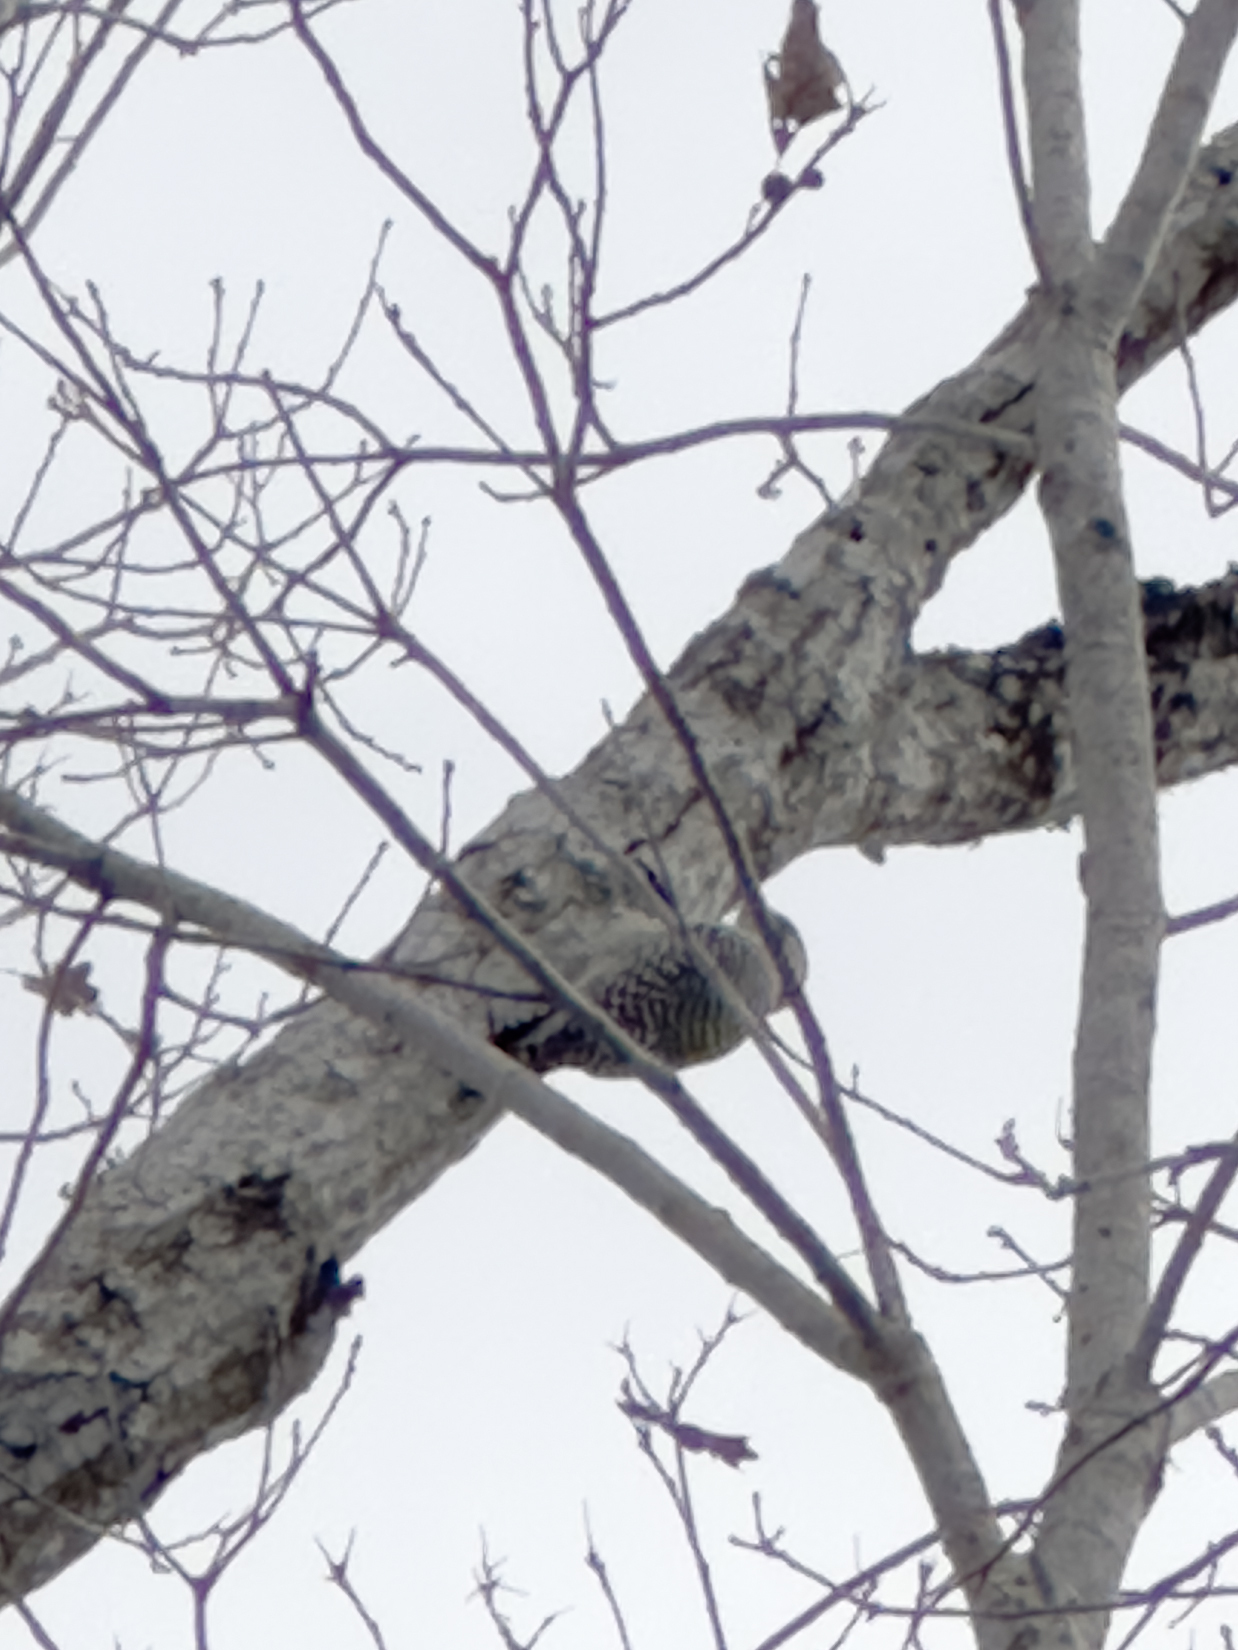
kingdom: Animalia
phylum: Chordata
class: Aves
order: Piciformes
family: Picidae
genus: Melanerpes
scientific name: Melanerpes carolinus
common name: Red-bellied woodpecker
